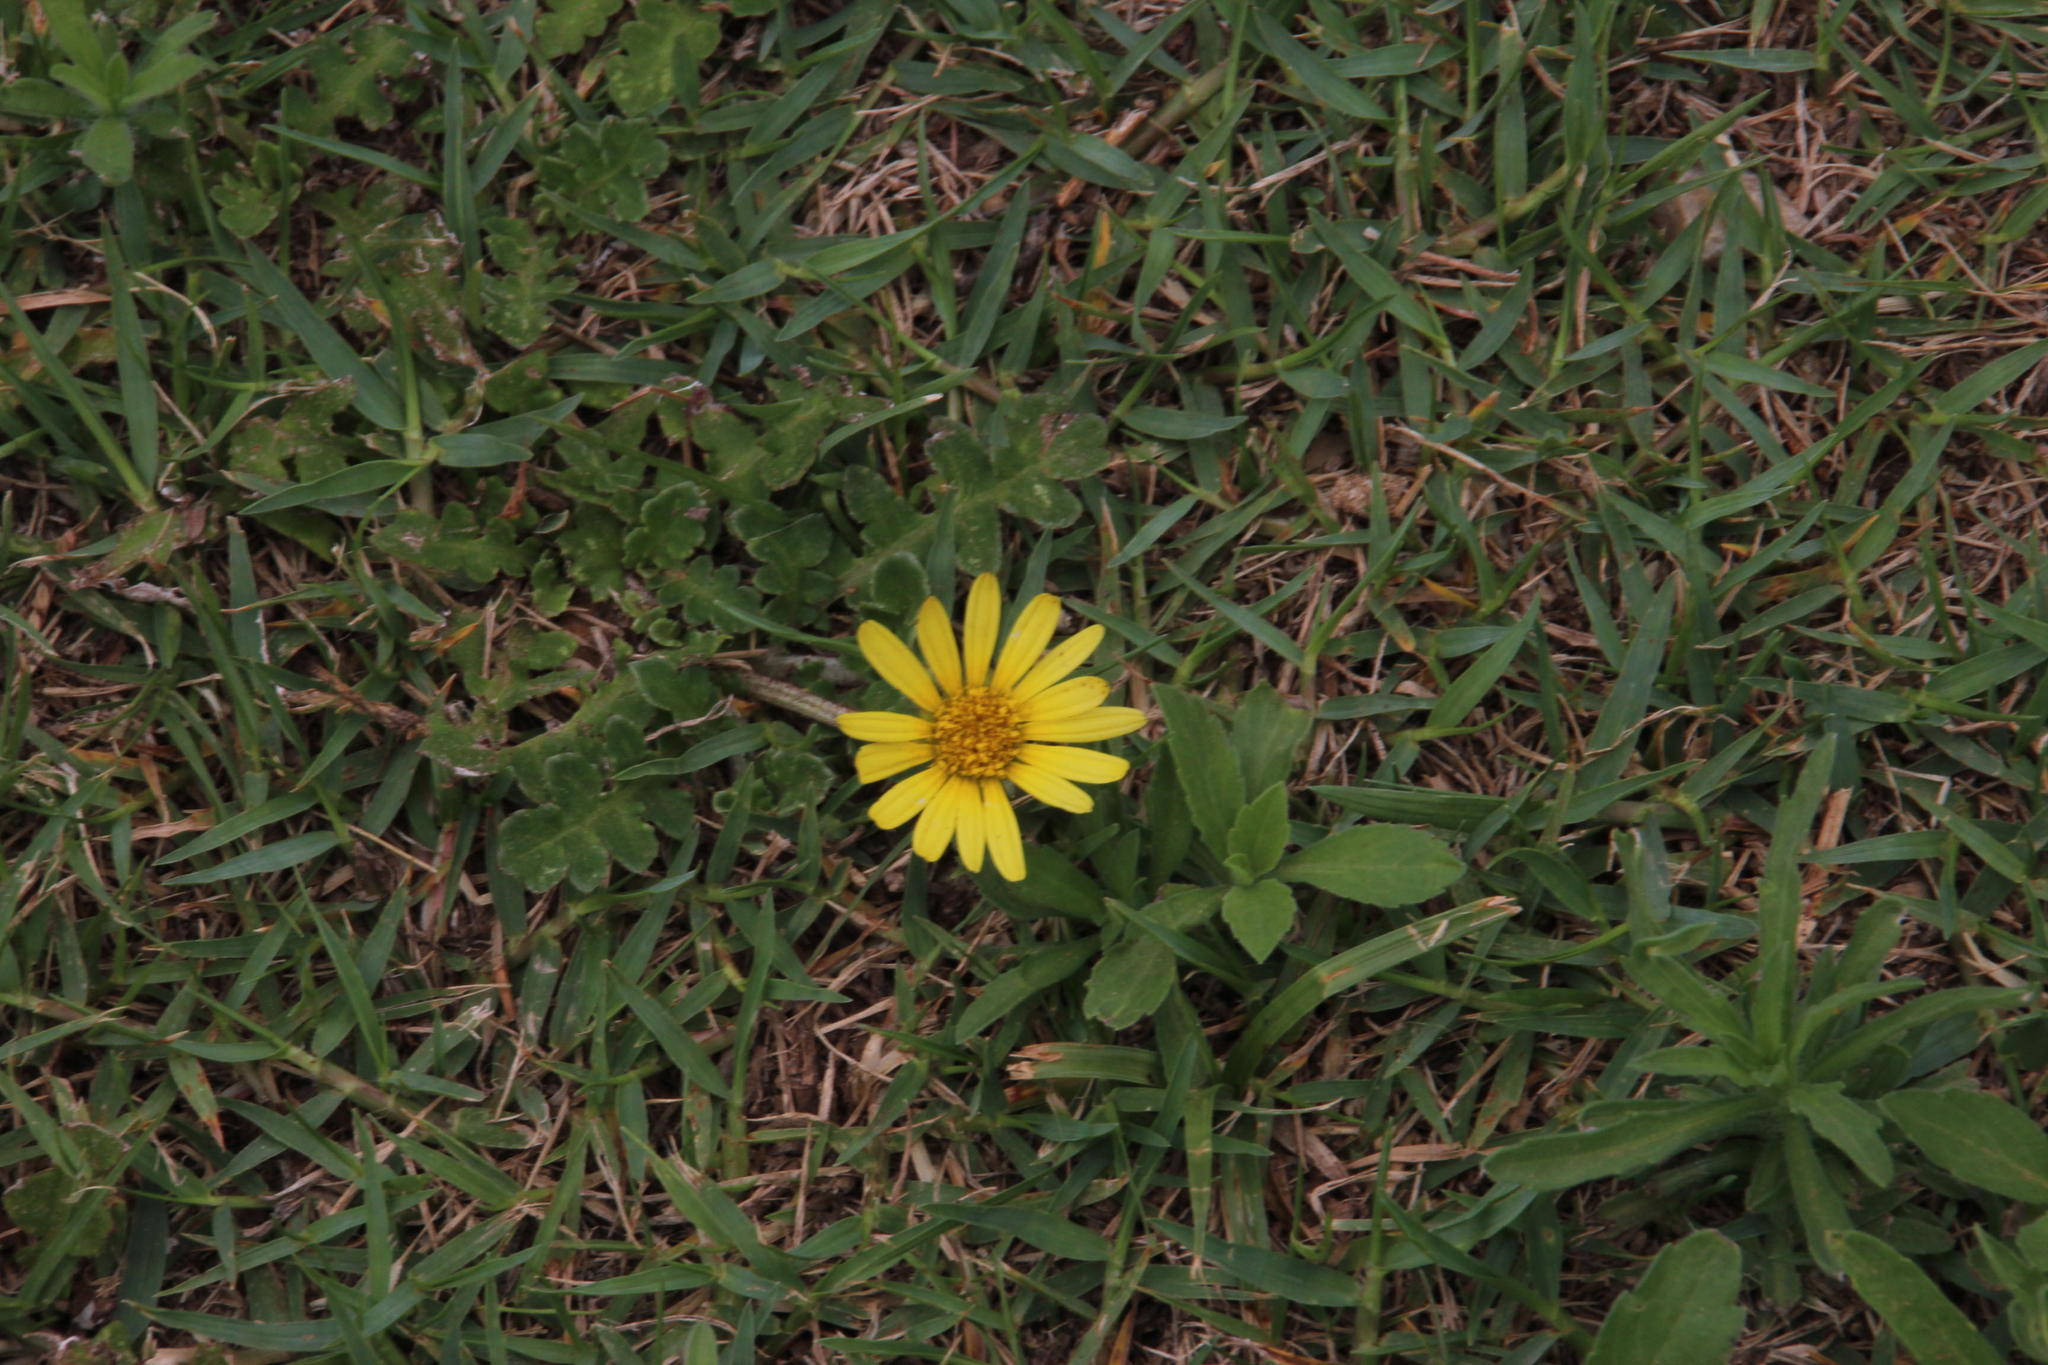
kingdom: Plantae
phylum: Tracheophyta
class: Magnoliopsida
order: Asterales
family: Asteraceae
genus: Arctotheca
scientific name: Arctotheca prostrata
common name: Capeweed
